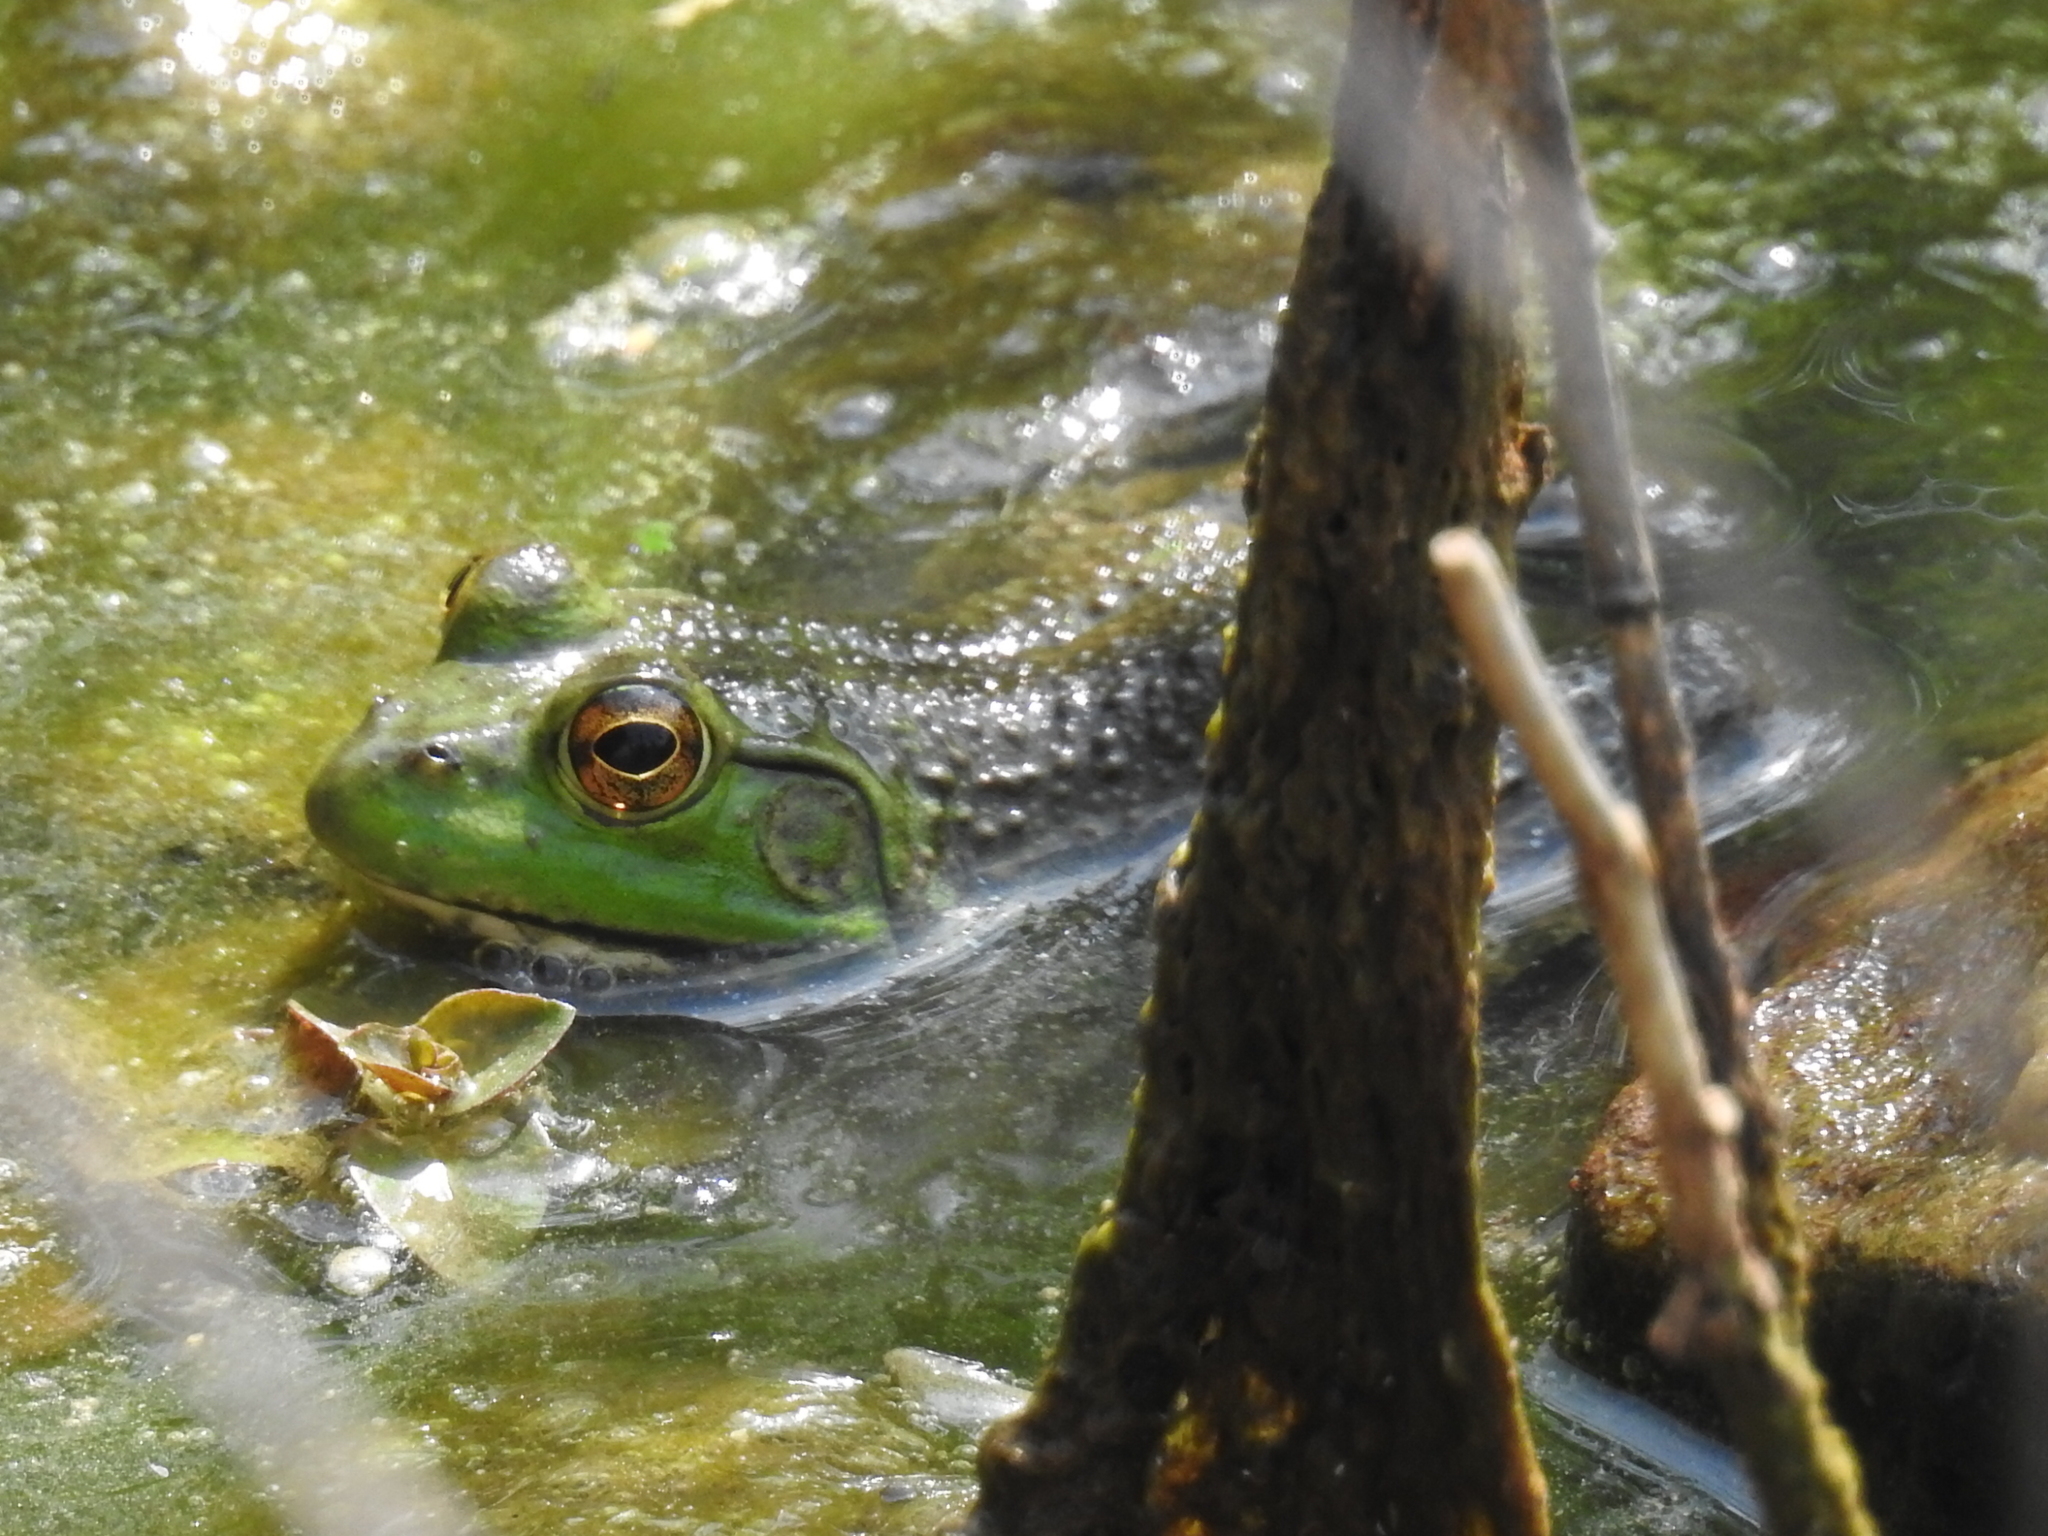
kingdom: Animalia
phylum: Chordata
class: Amphibia
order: Anura
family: Ranidae
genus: Lithobates
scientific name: Lithobates catesbeianus
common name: American bullfrog
